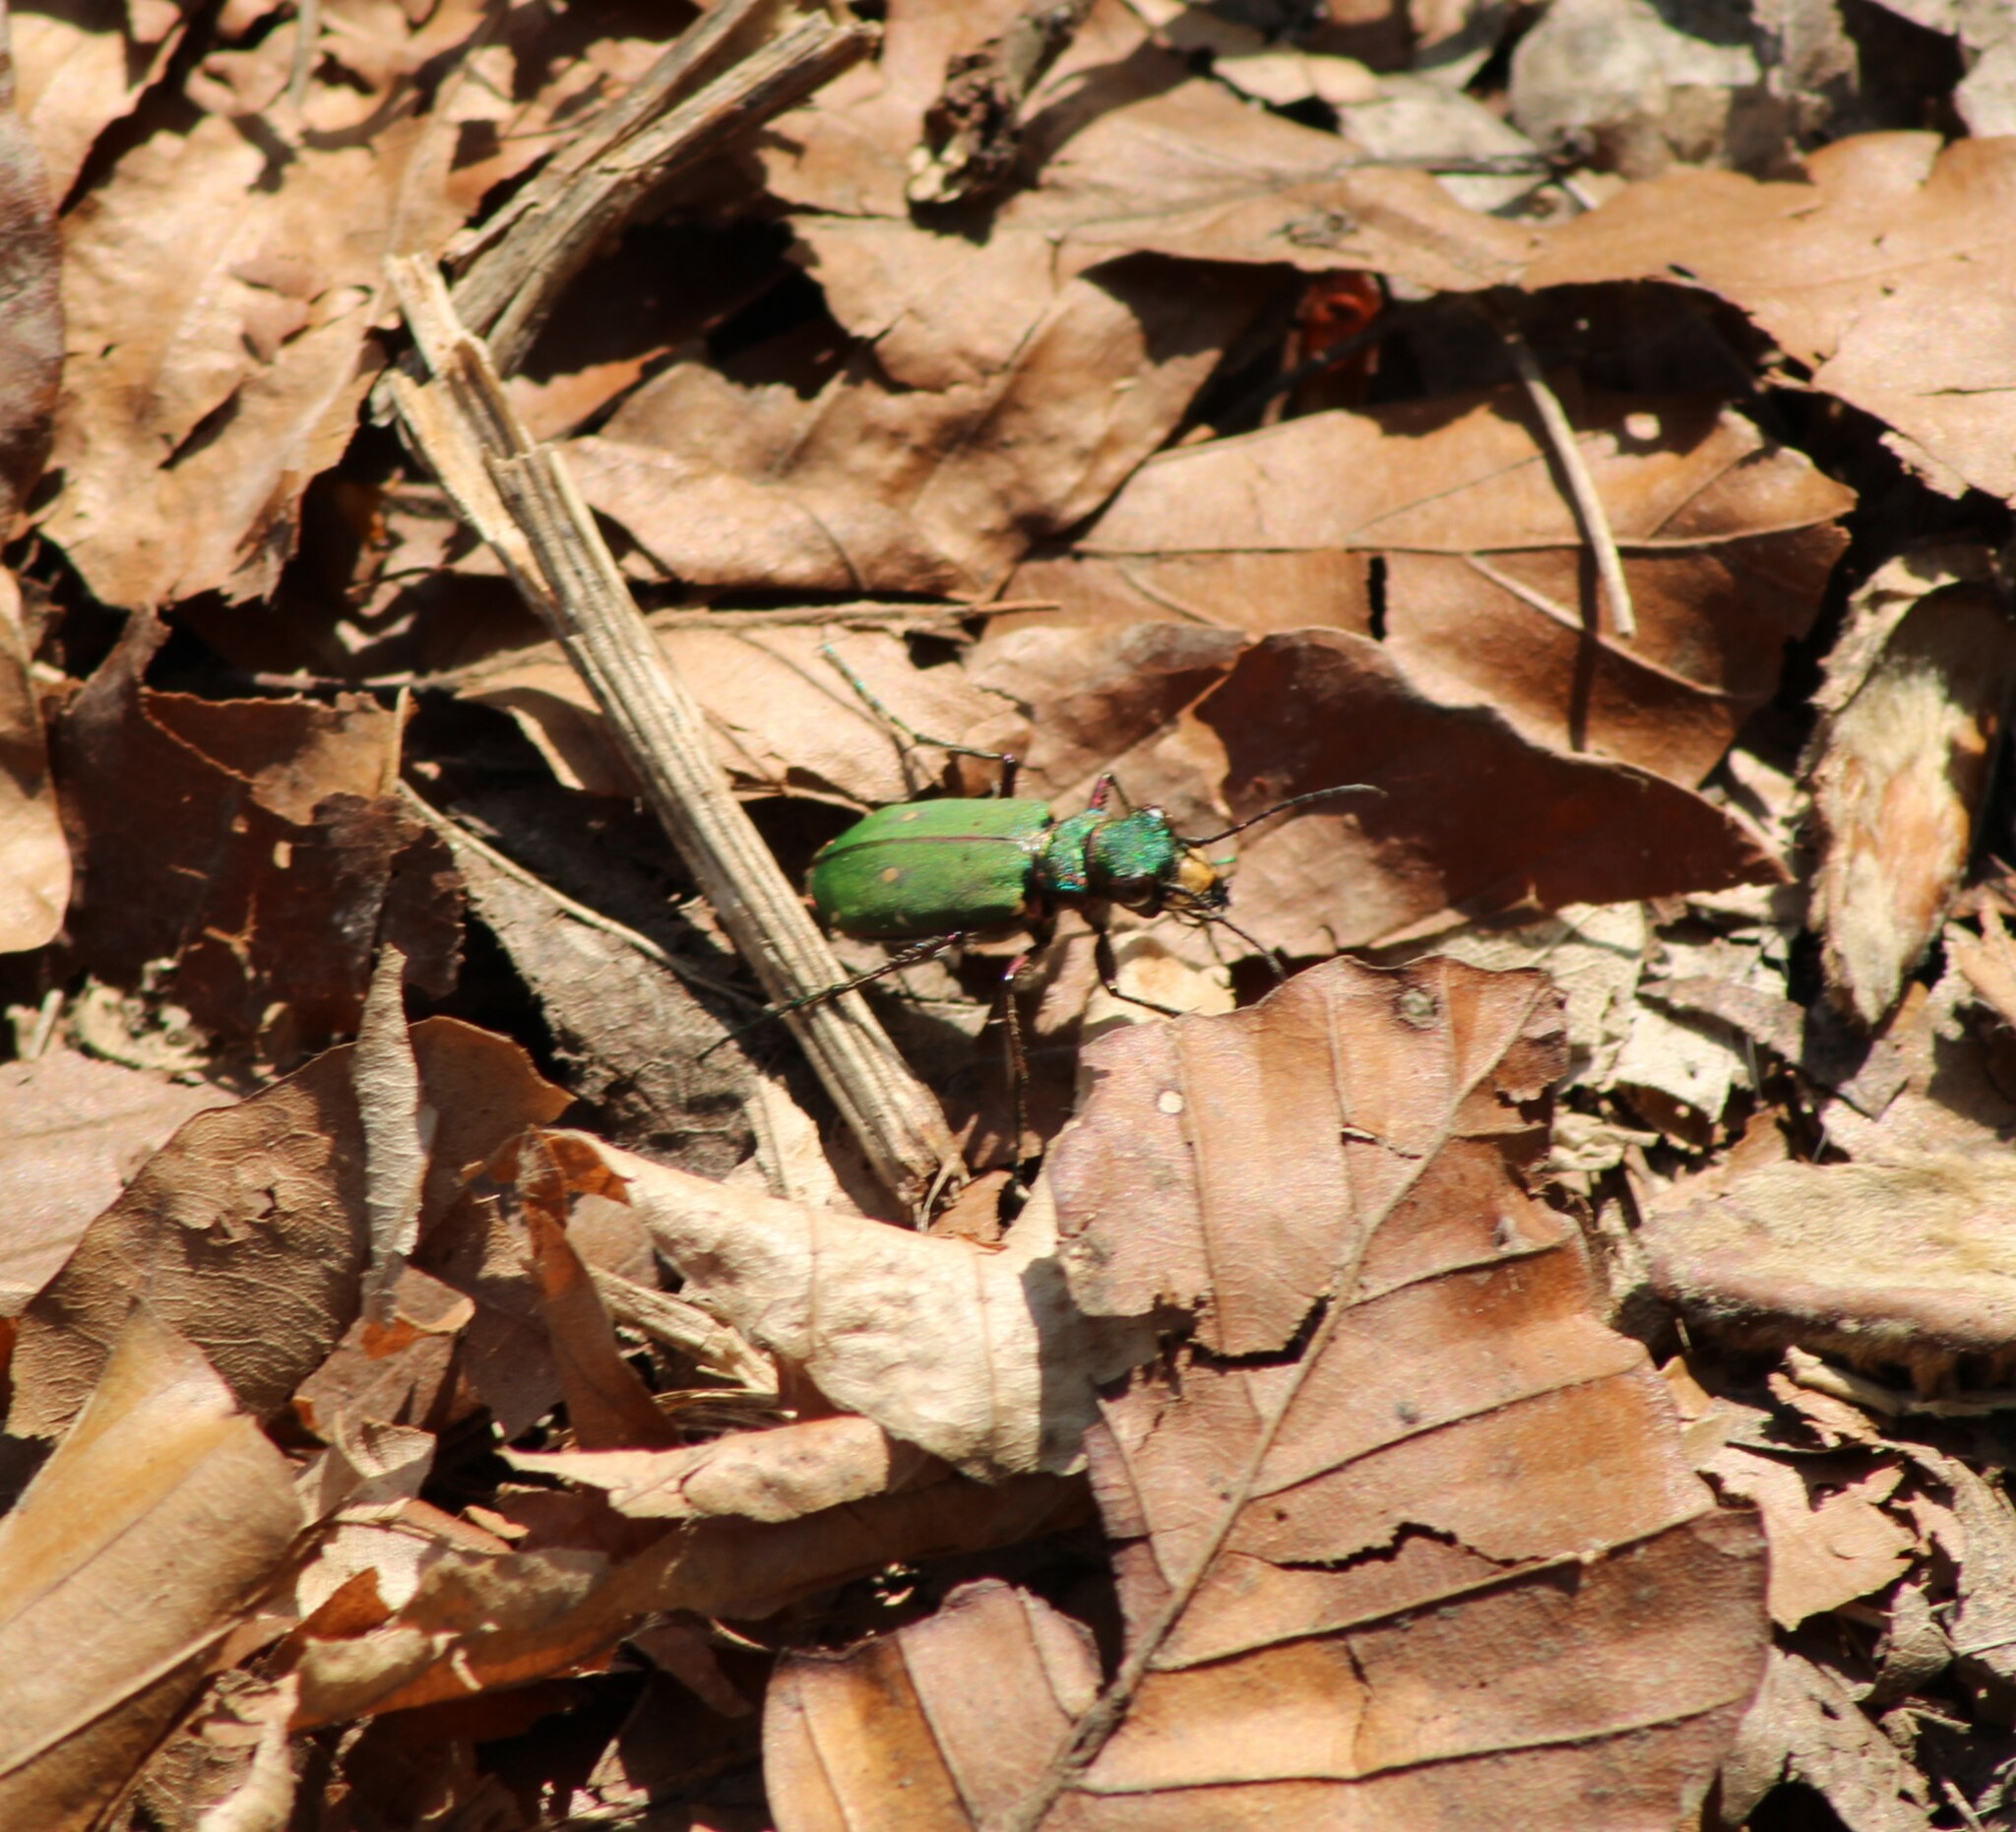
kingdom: Animalia
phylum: Arthropoda
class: Insecta
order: Coleoptera
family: Carabidae
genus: Cicindela
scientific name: Cicindela campestris
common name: Common tiger beetle
